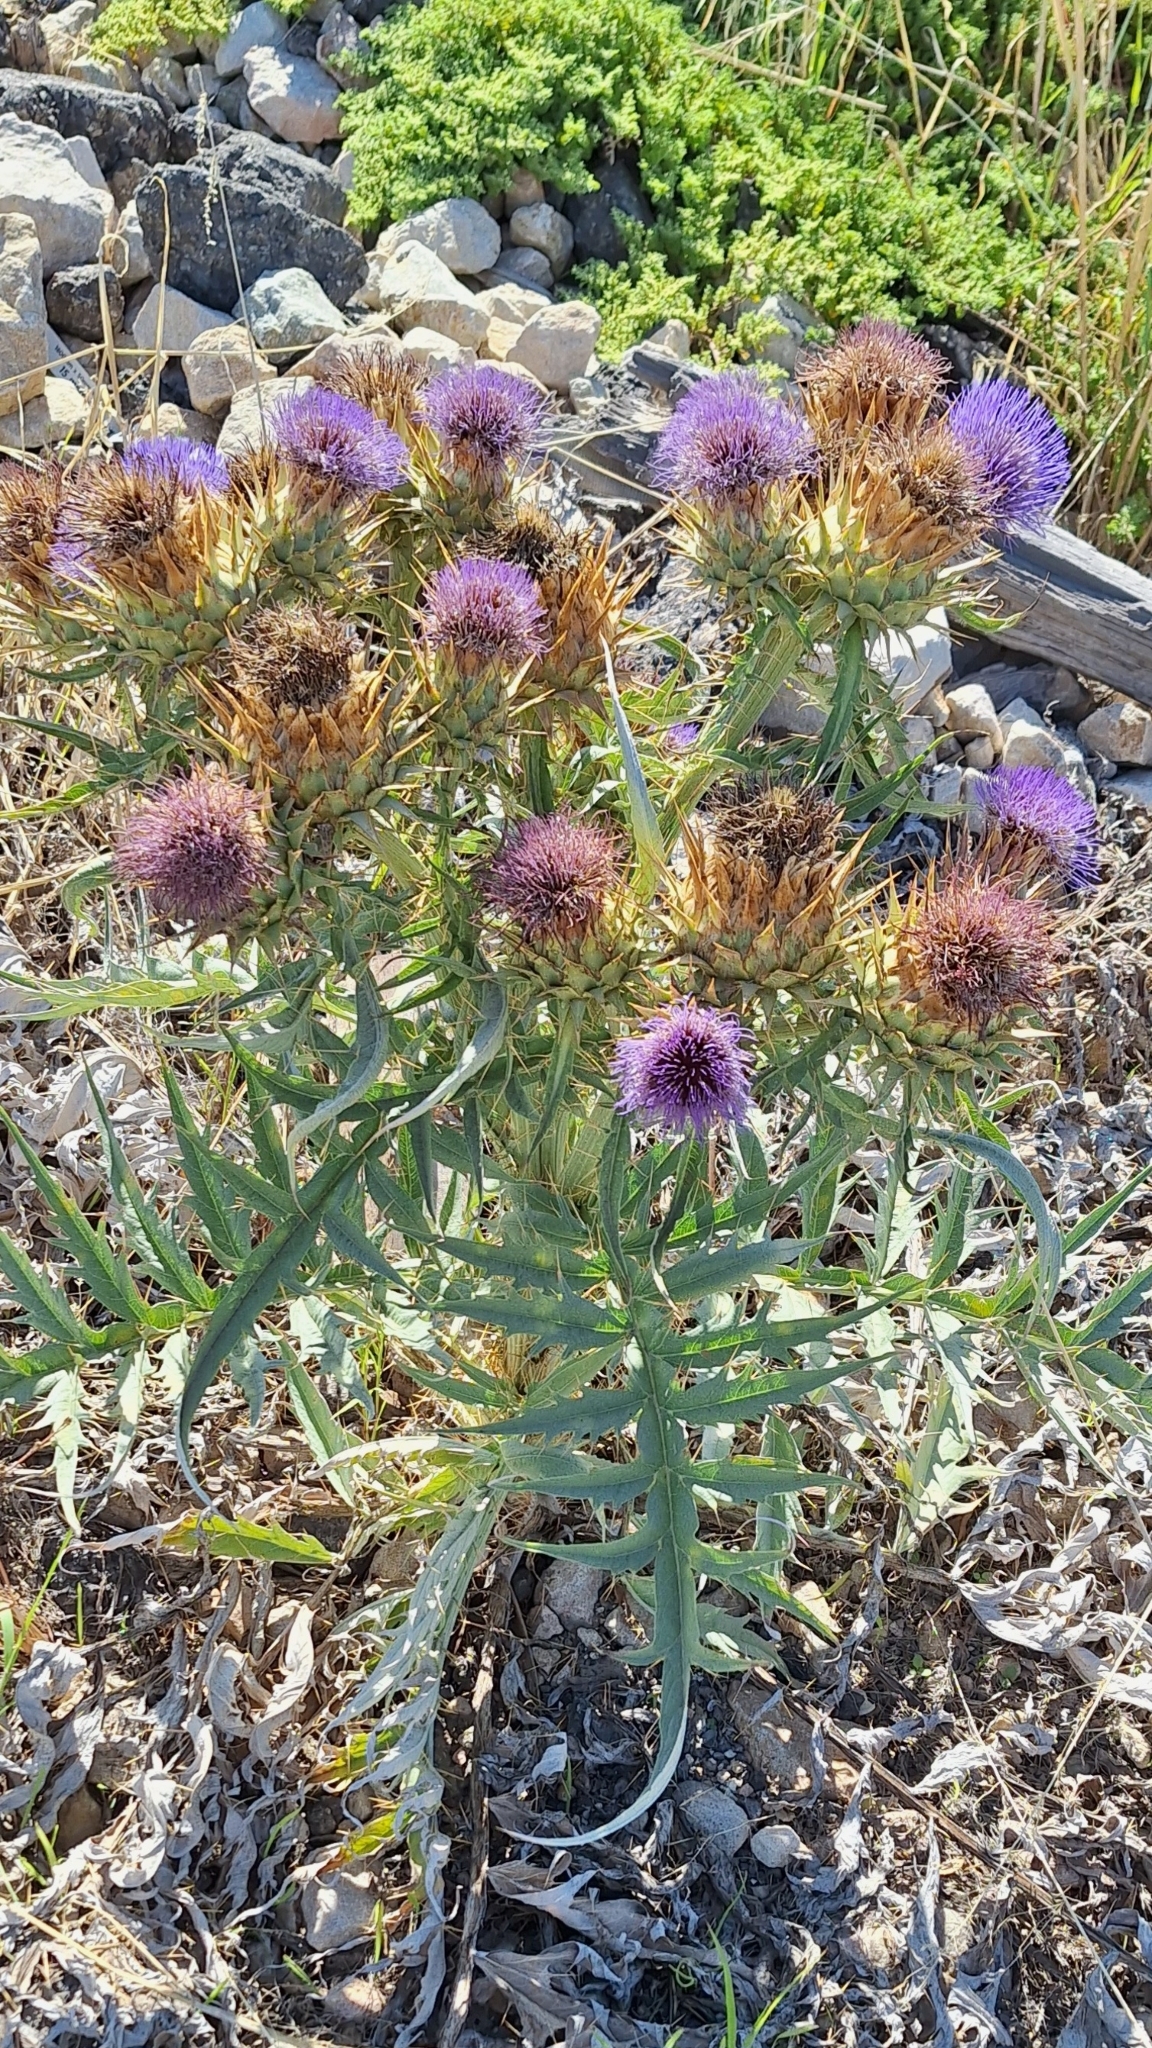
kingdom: Plantae
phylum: Tracheophyta
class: Magnoliopsida
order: Asterales
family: Asteraceae
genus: Cynara
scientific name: Cynara cardunculus
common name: Globe artichoke
